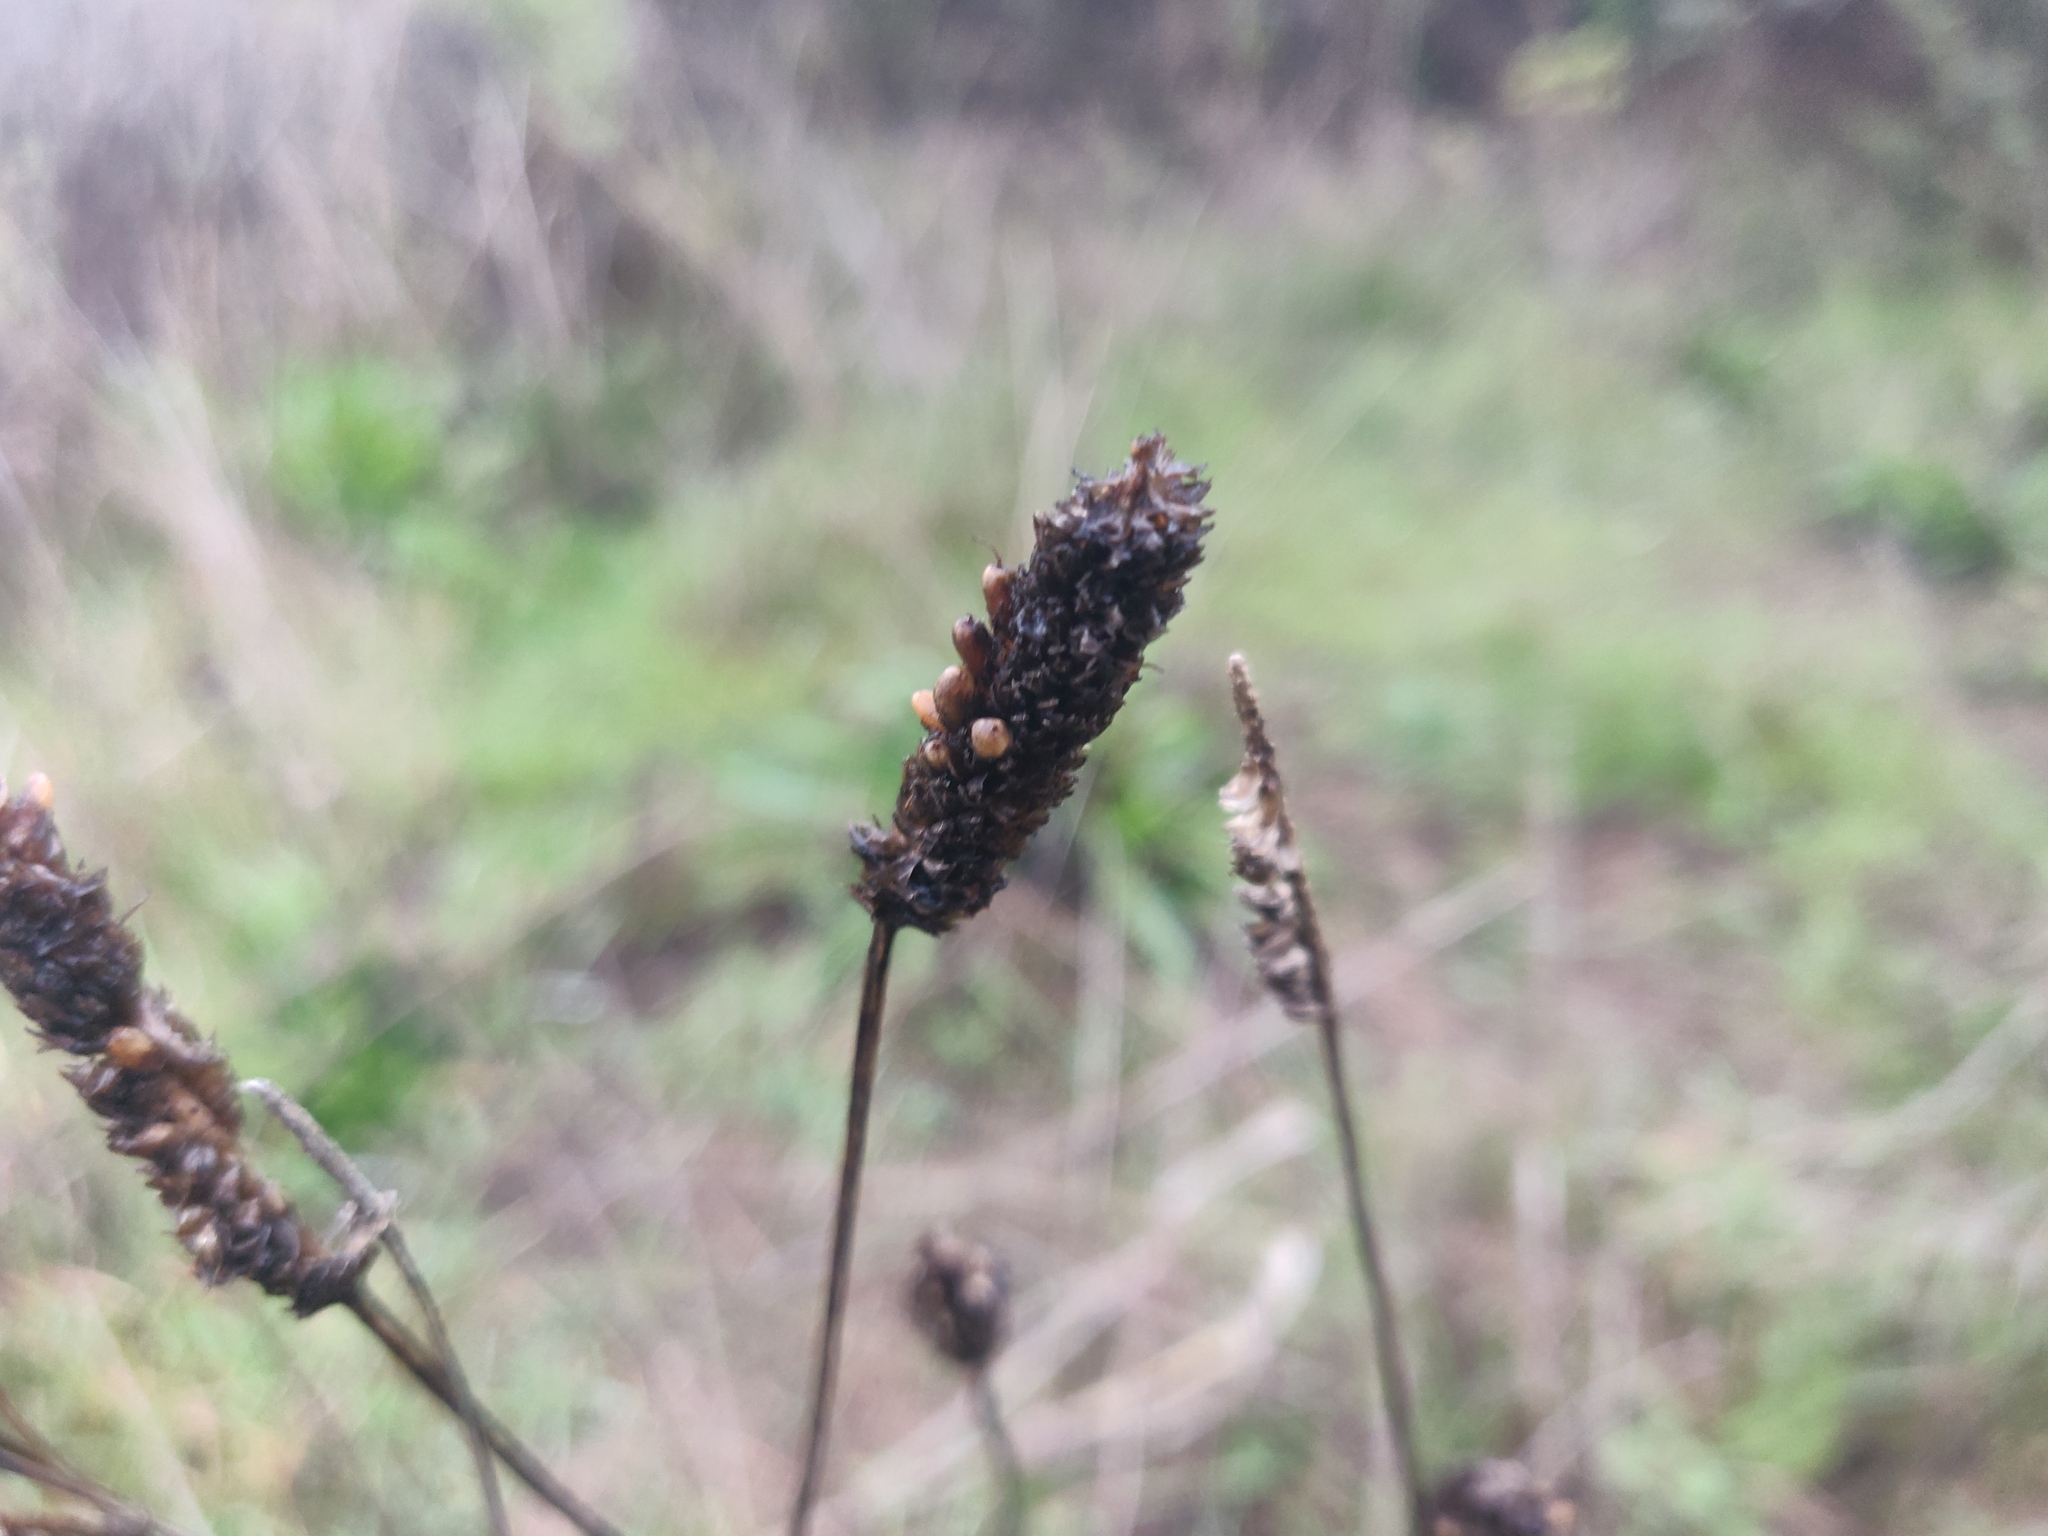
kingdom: Plantae
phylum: Tracheophyta
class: Magnoliopsida
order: Lamiales
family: Plantaginaceae
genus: Plantago
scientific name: Plantago lanceolata
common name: Ribwort plantain
